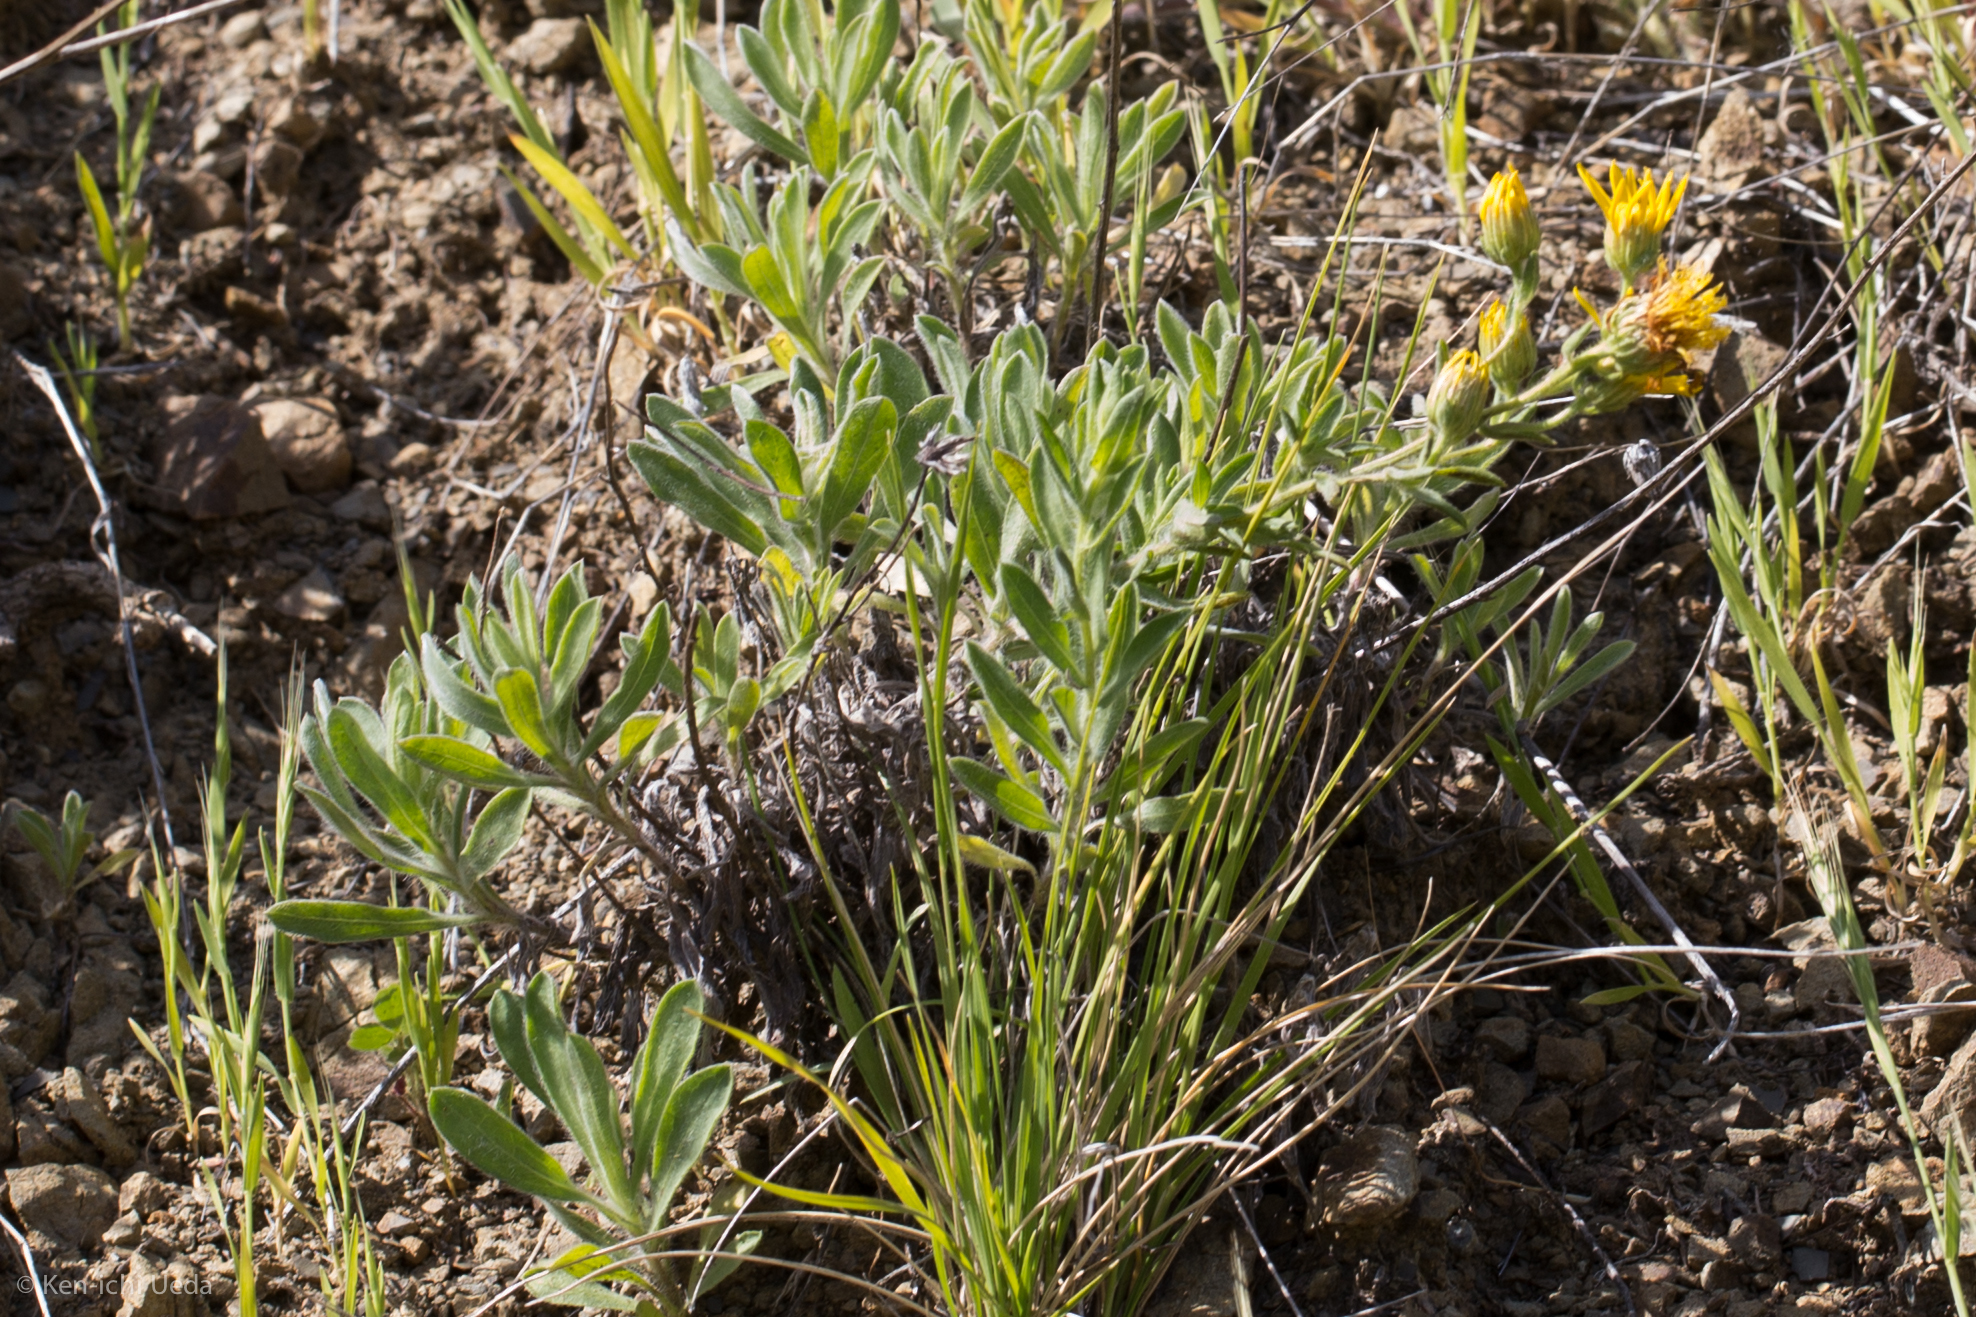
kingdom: Plantae
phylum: Tracheophyta
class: Magnoliopsida
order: Asterales
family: Asteraceae
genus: Heterotheca
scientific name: Heterotheca sessiliflora
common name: Sessile-flower golden-aster
